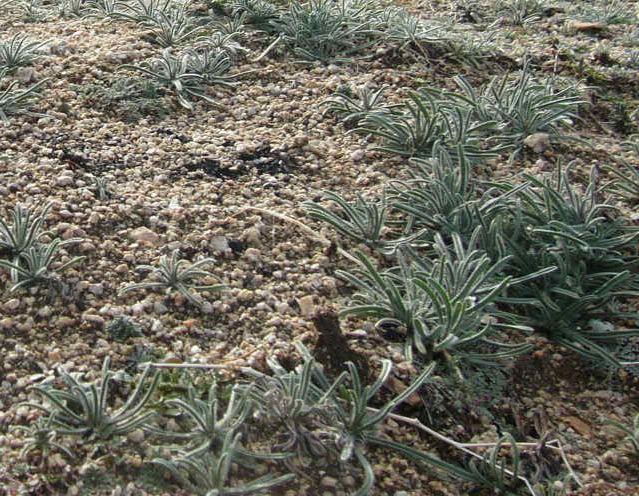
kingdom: Plantae
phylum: Tracheophyta
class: Magnoliopsida
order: Lamiales
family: Plantaginaceae
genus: Plantago
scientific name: Plantago ovata
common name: Blond plantain
